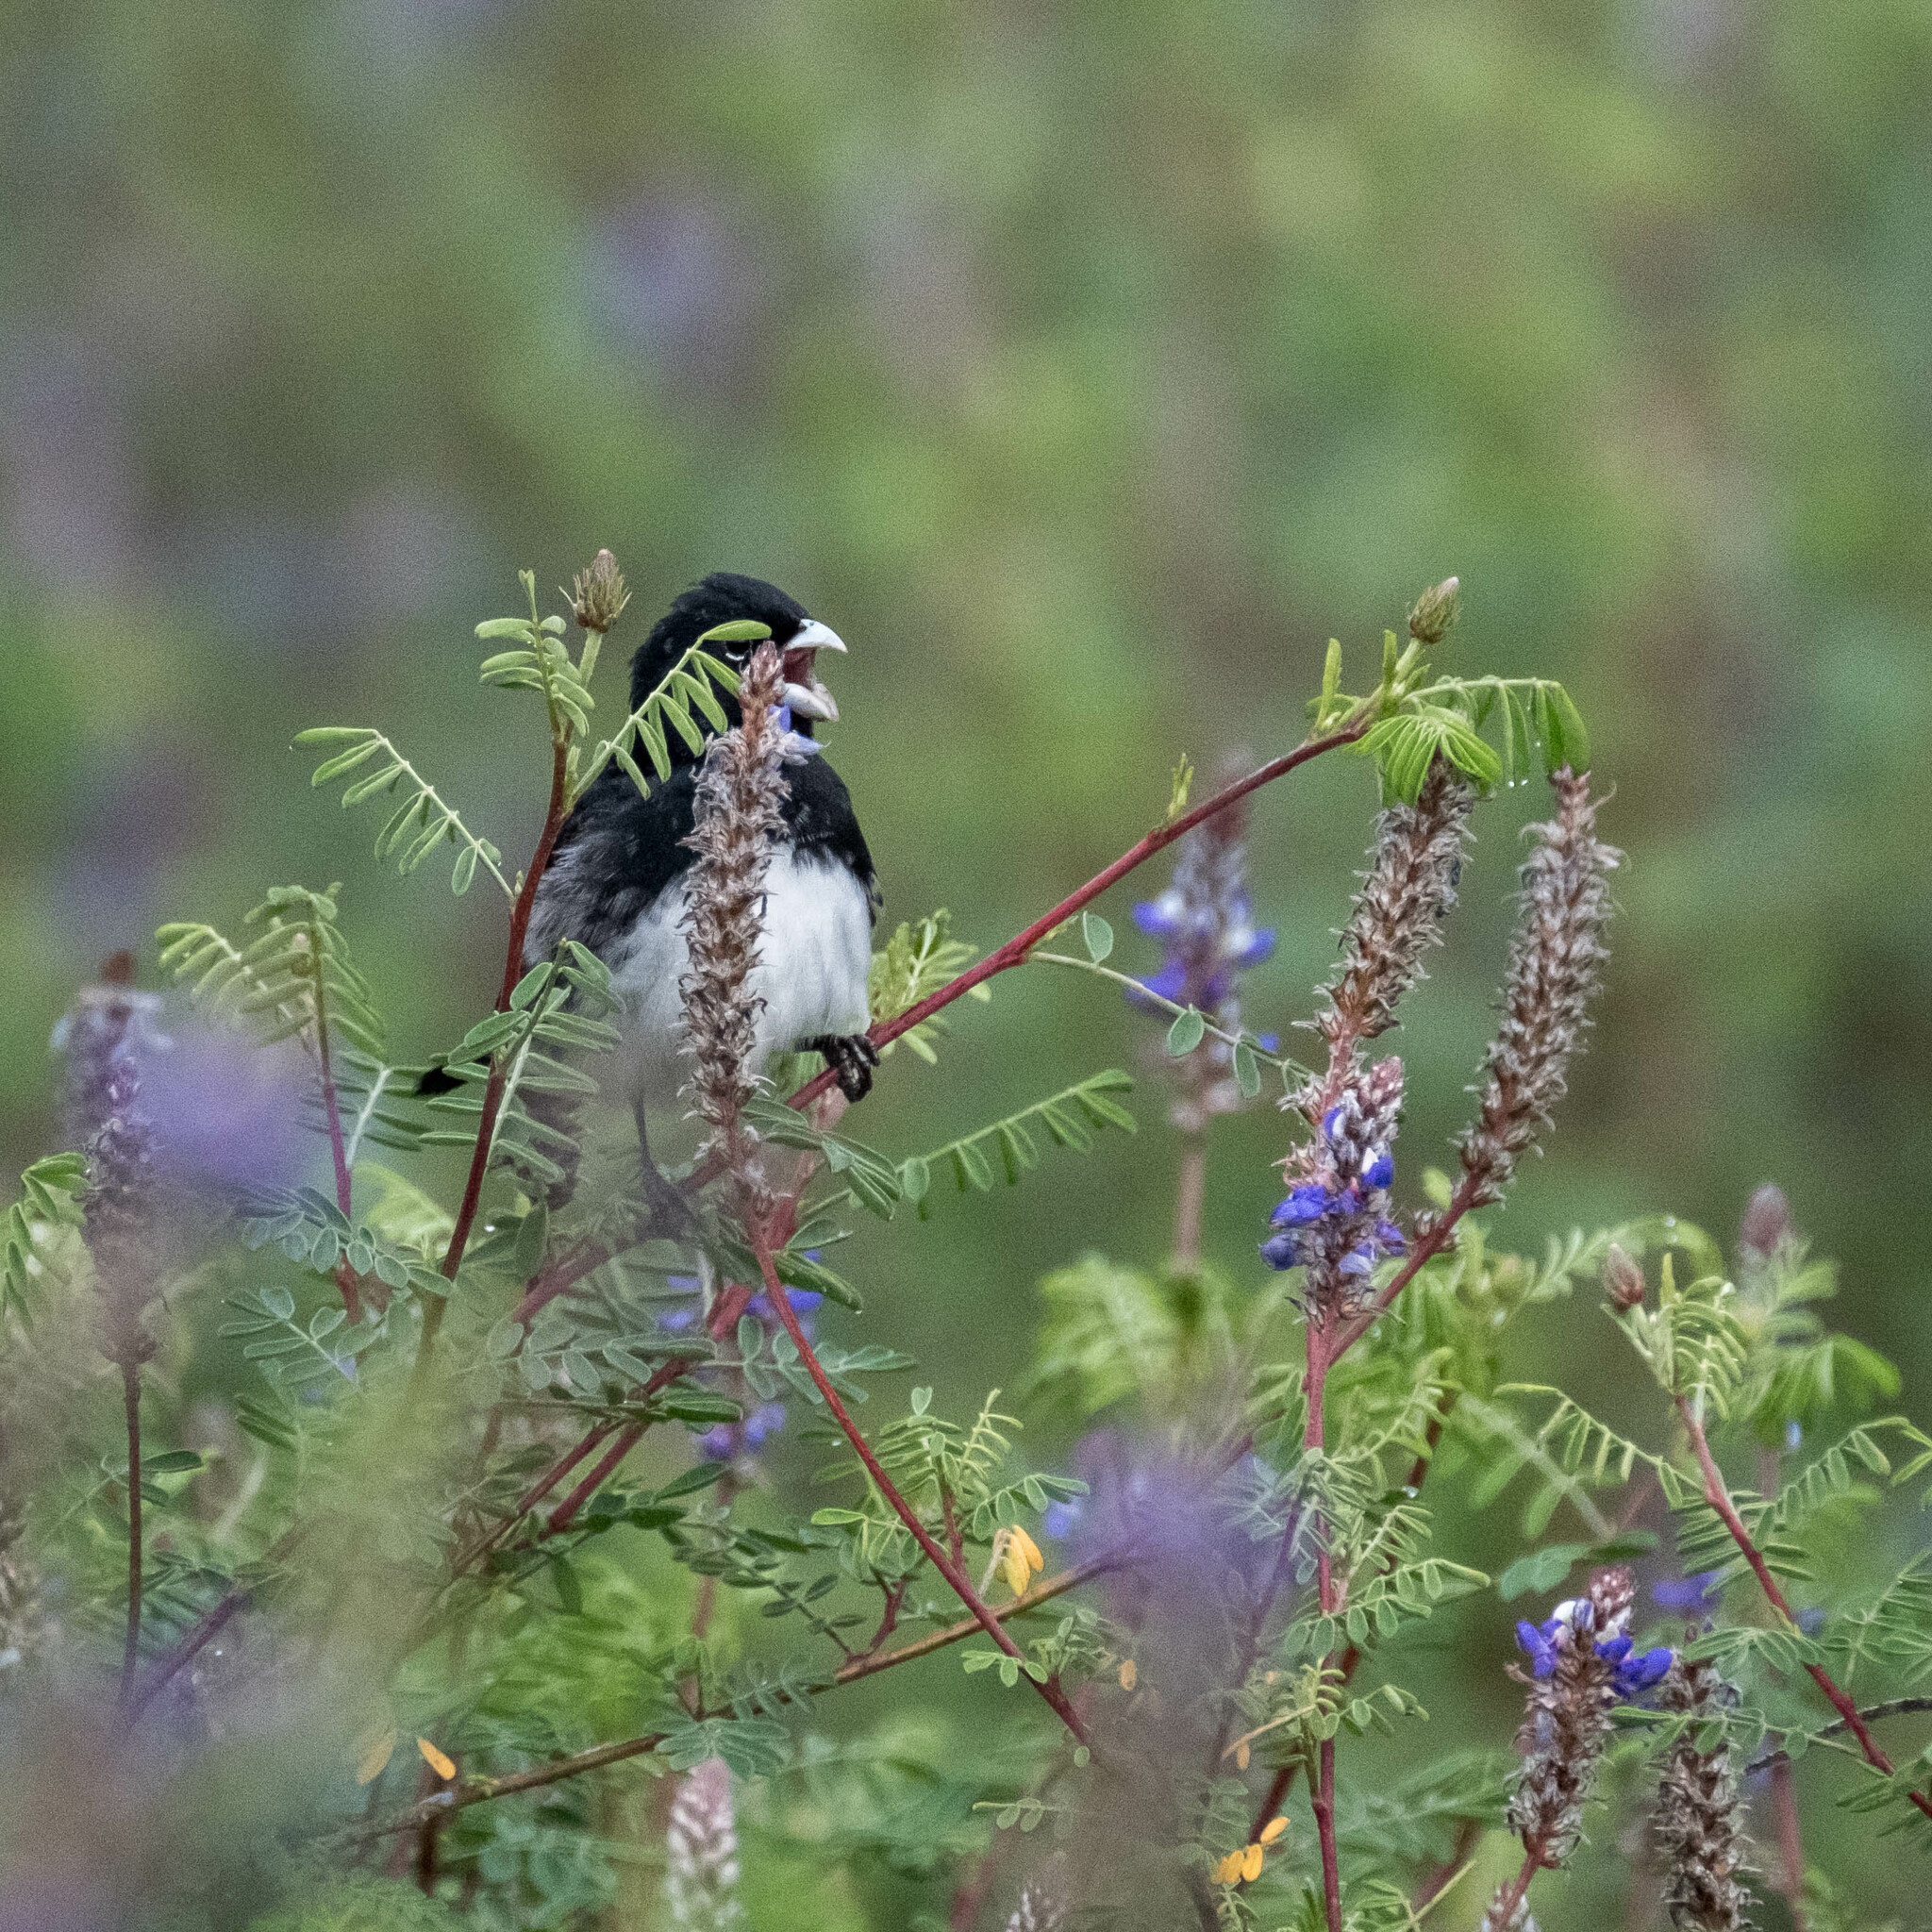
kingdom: Animalia
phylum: Chordata
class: Aves
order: Passeriformes
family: Thraupidae
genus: Sporophila
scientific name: Sporophila luctuosa
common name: Black-and-white seedeater
